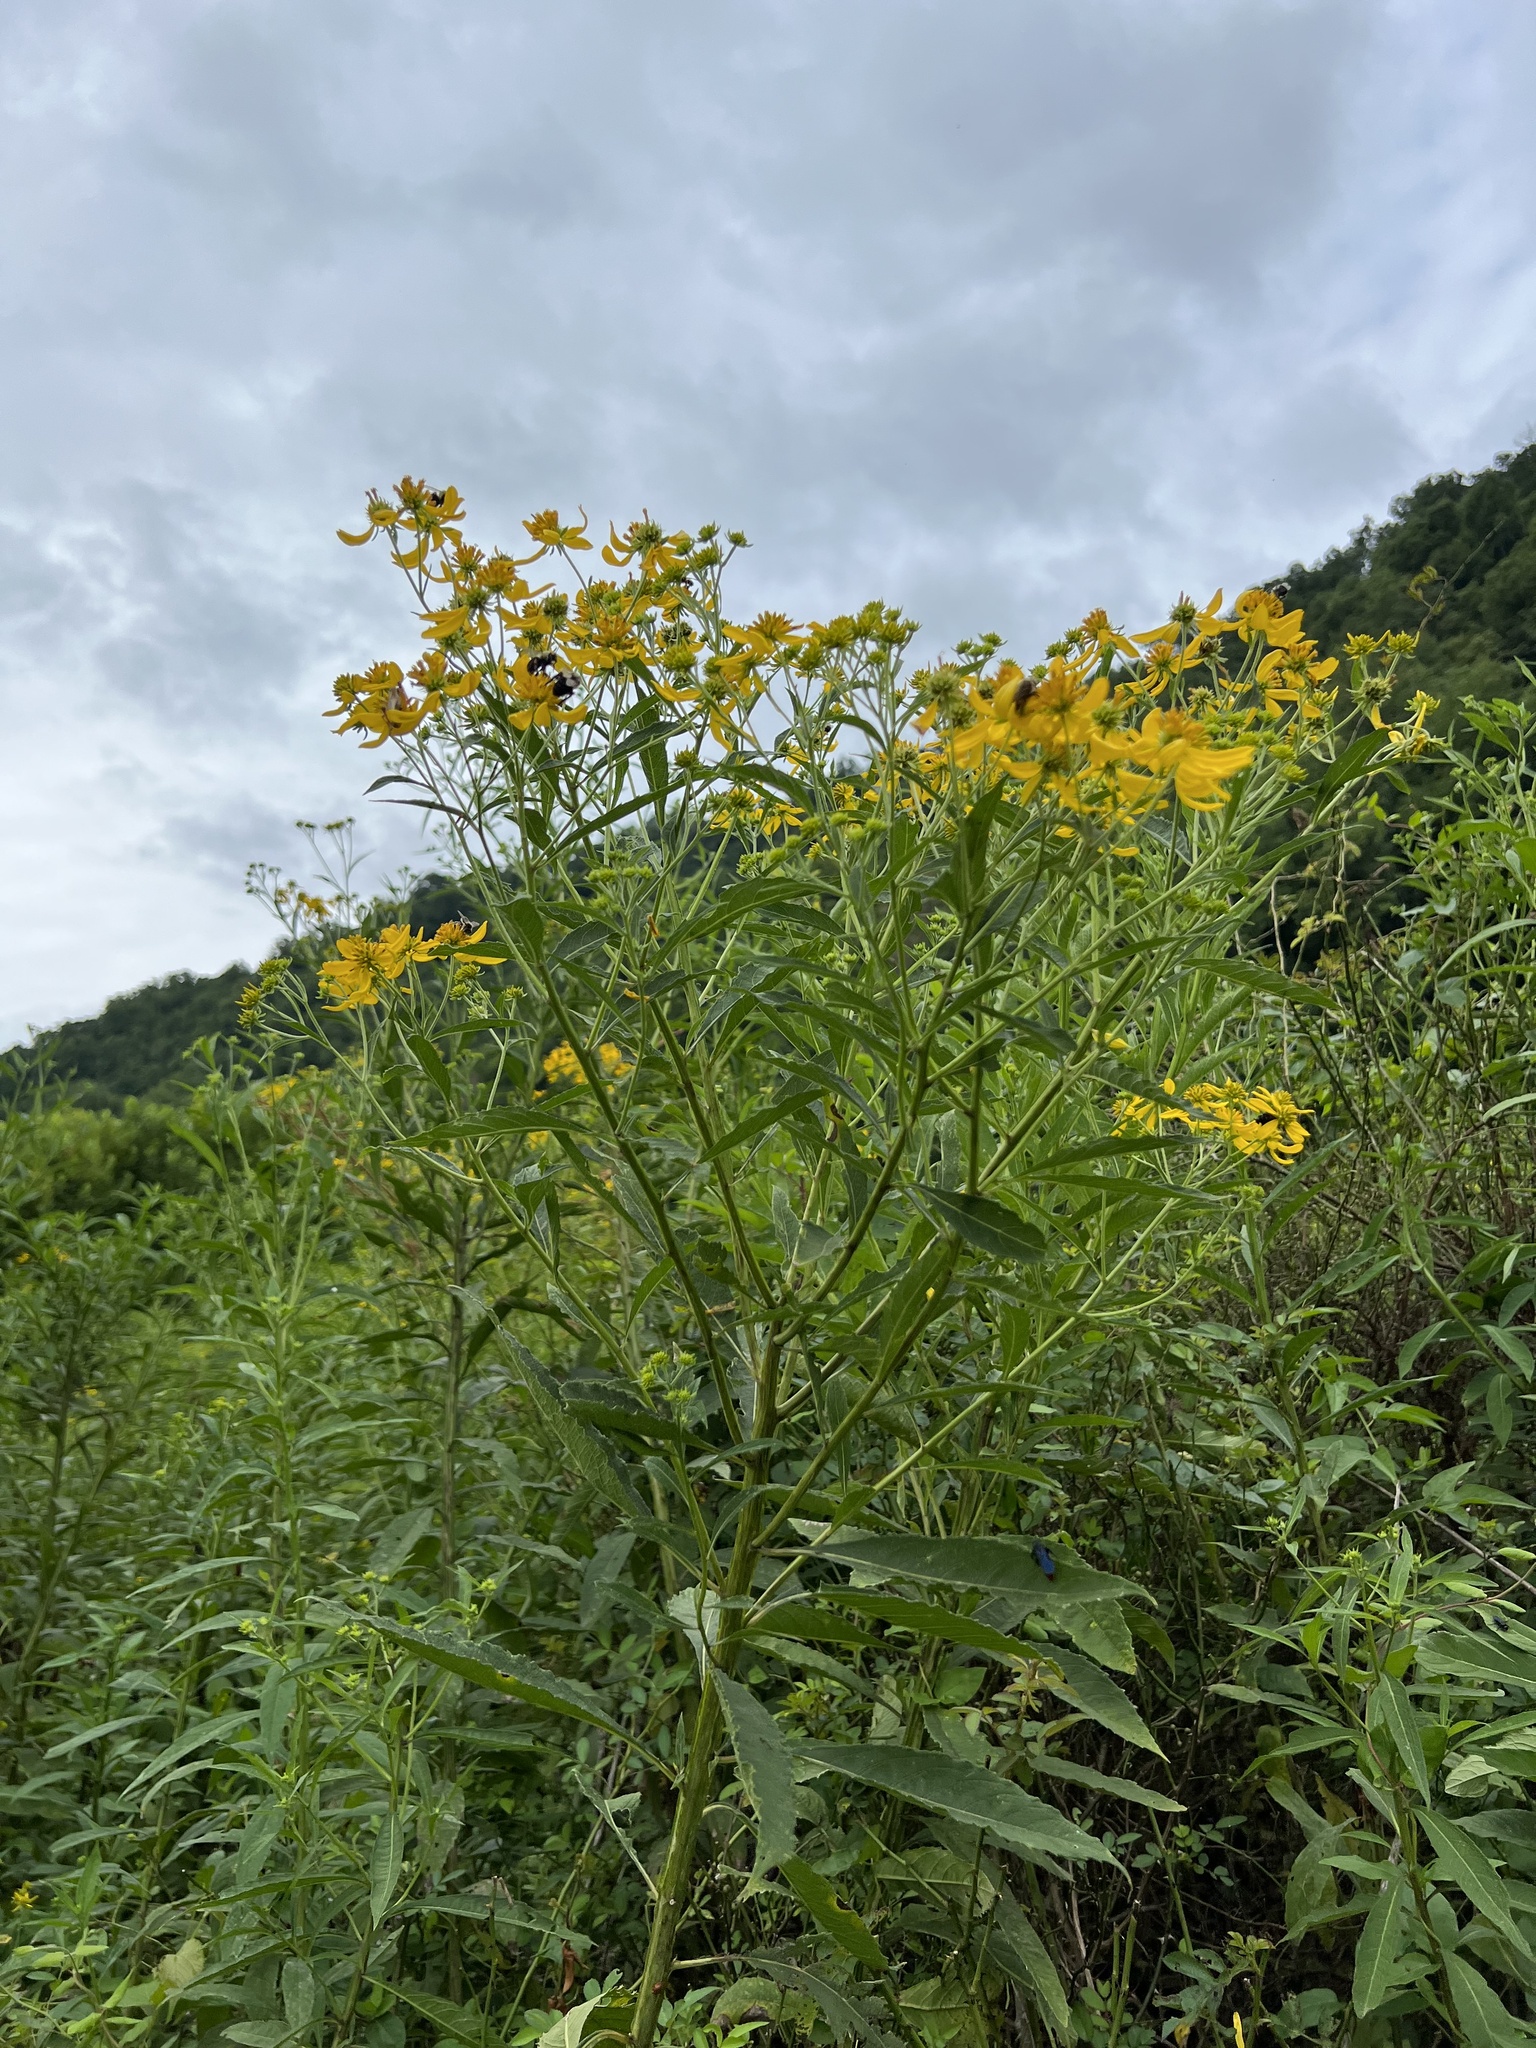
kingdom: Plantae
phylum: Tracheophyta
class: Magnoliopsida
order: Asterales
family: Asteraceae
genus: Verbesina
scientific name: Verbesina alternifolia
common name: Wingstem
